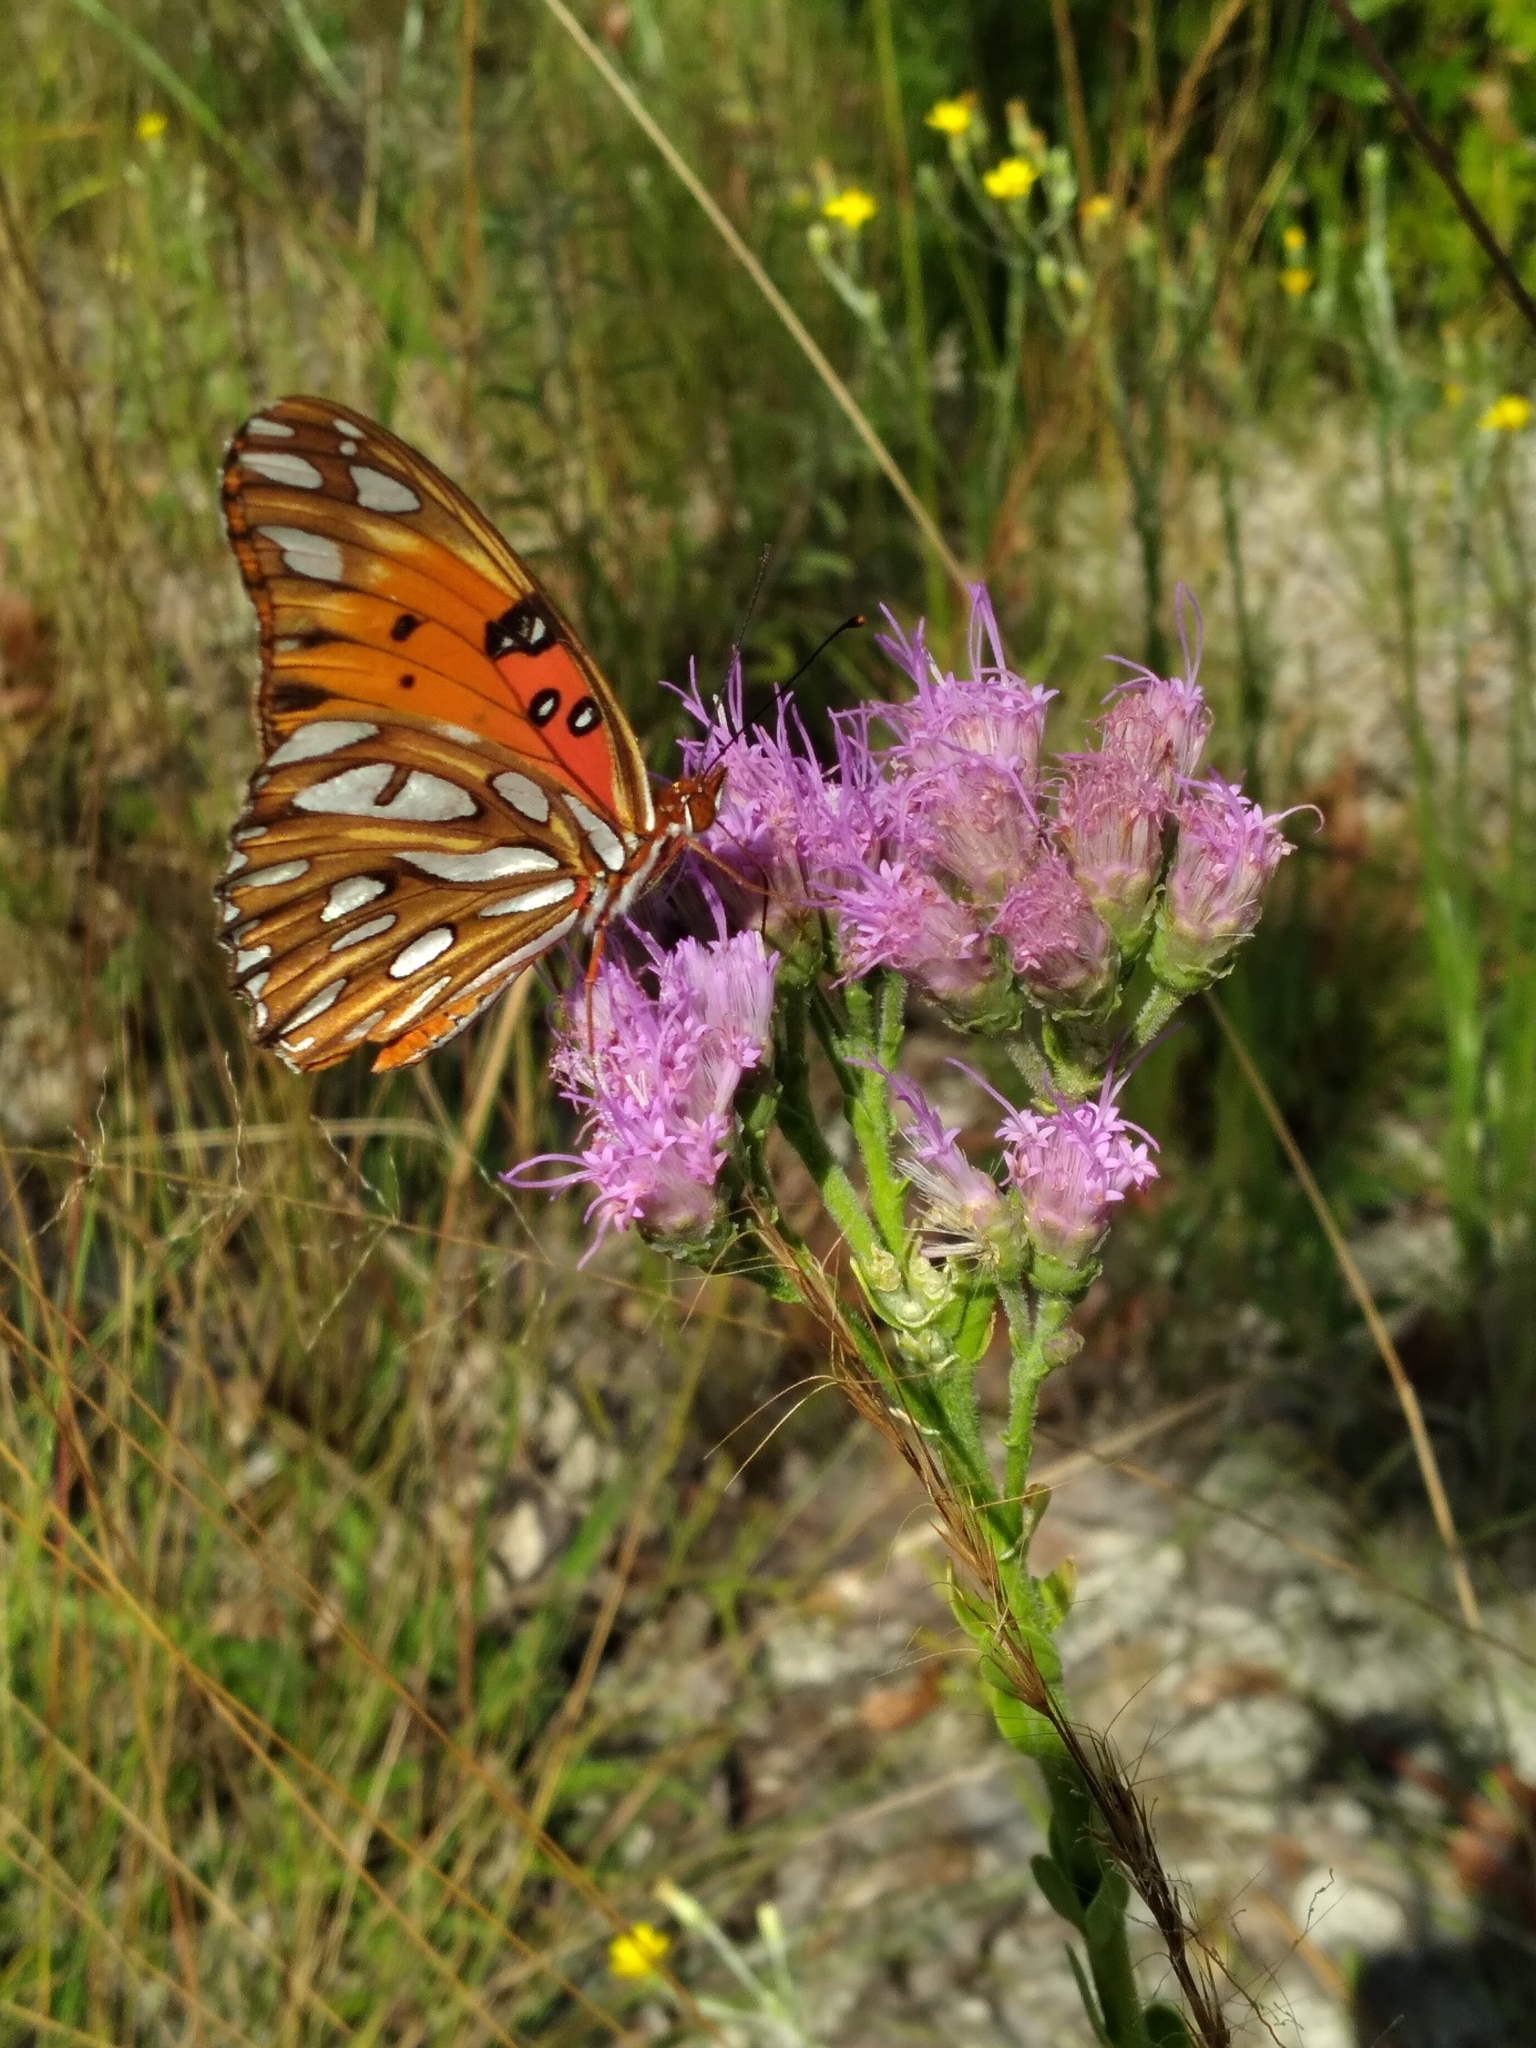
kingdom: Animalia
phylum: Arthropoda
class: Insecta
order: Lepidoptera
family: Nymphalidae
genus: Dione
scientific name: Dione vanillae
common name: Gulf fritillary
